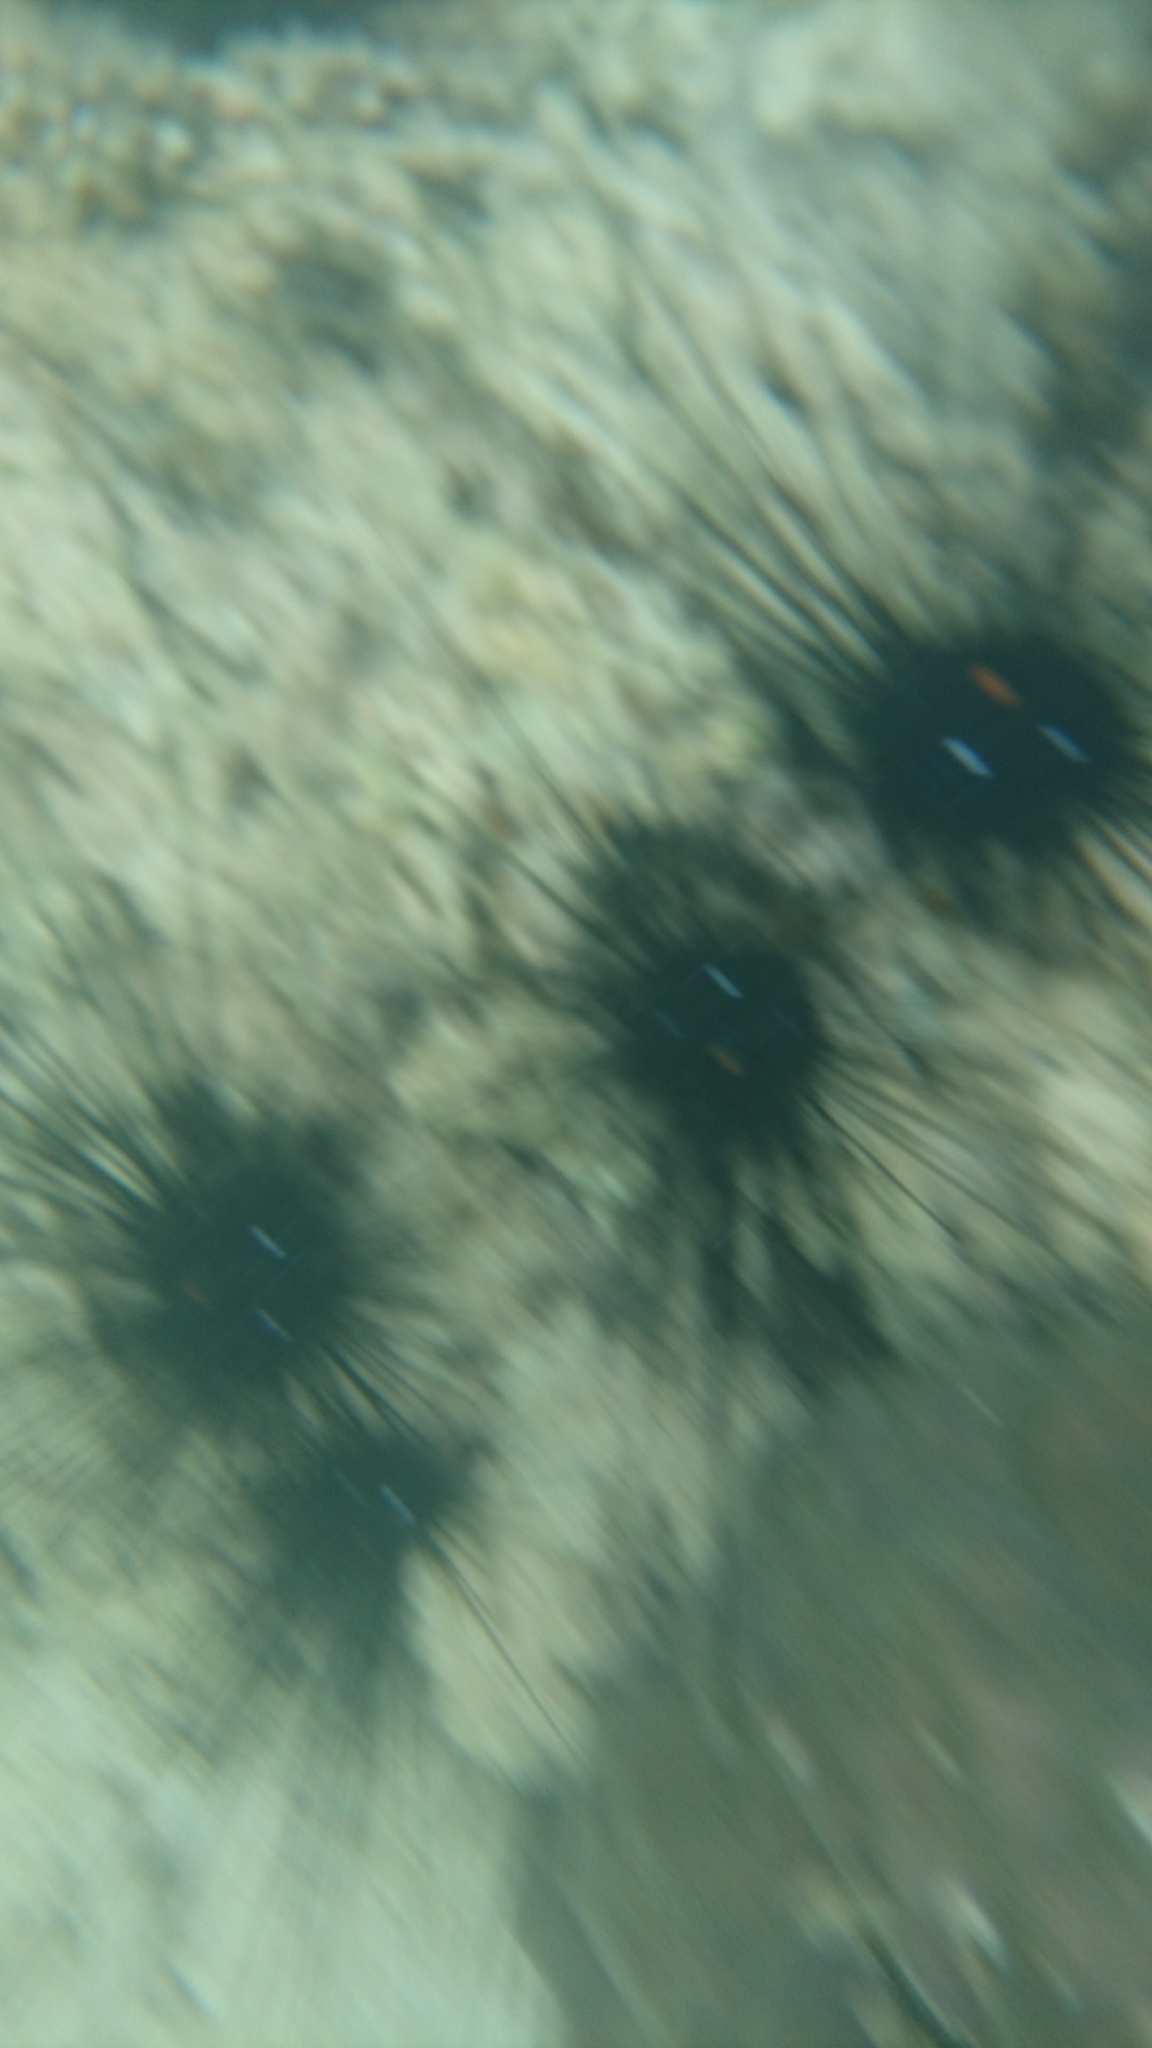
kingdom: Animalia
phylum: Echinodermata
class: Echinoidea
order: Diadematoida
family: Diadematidae
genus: Diadema
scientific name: Diadema setosum
